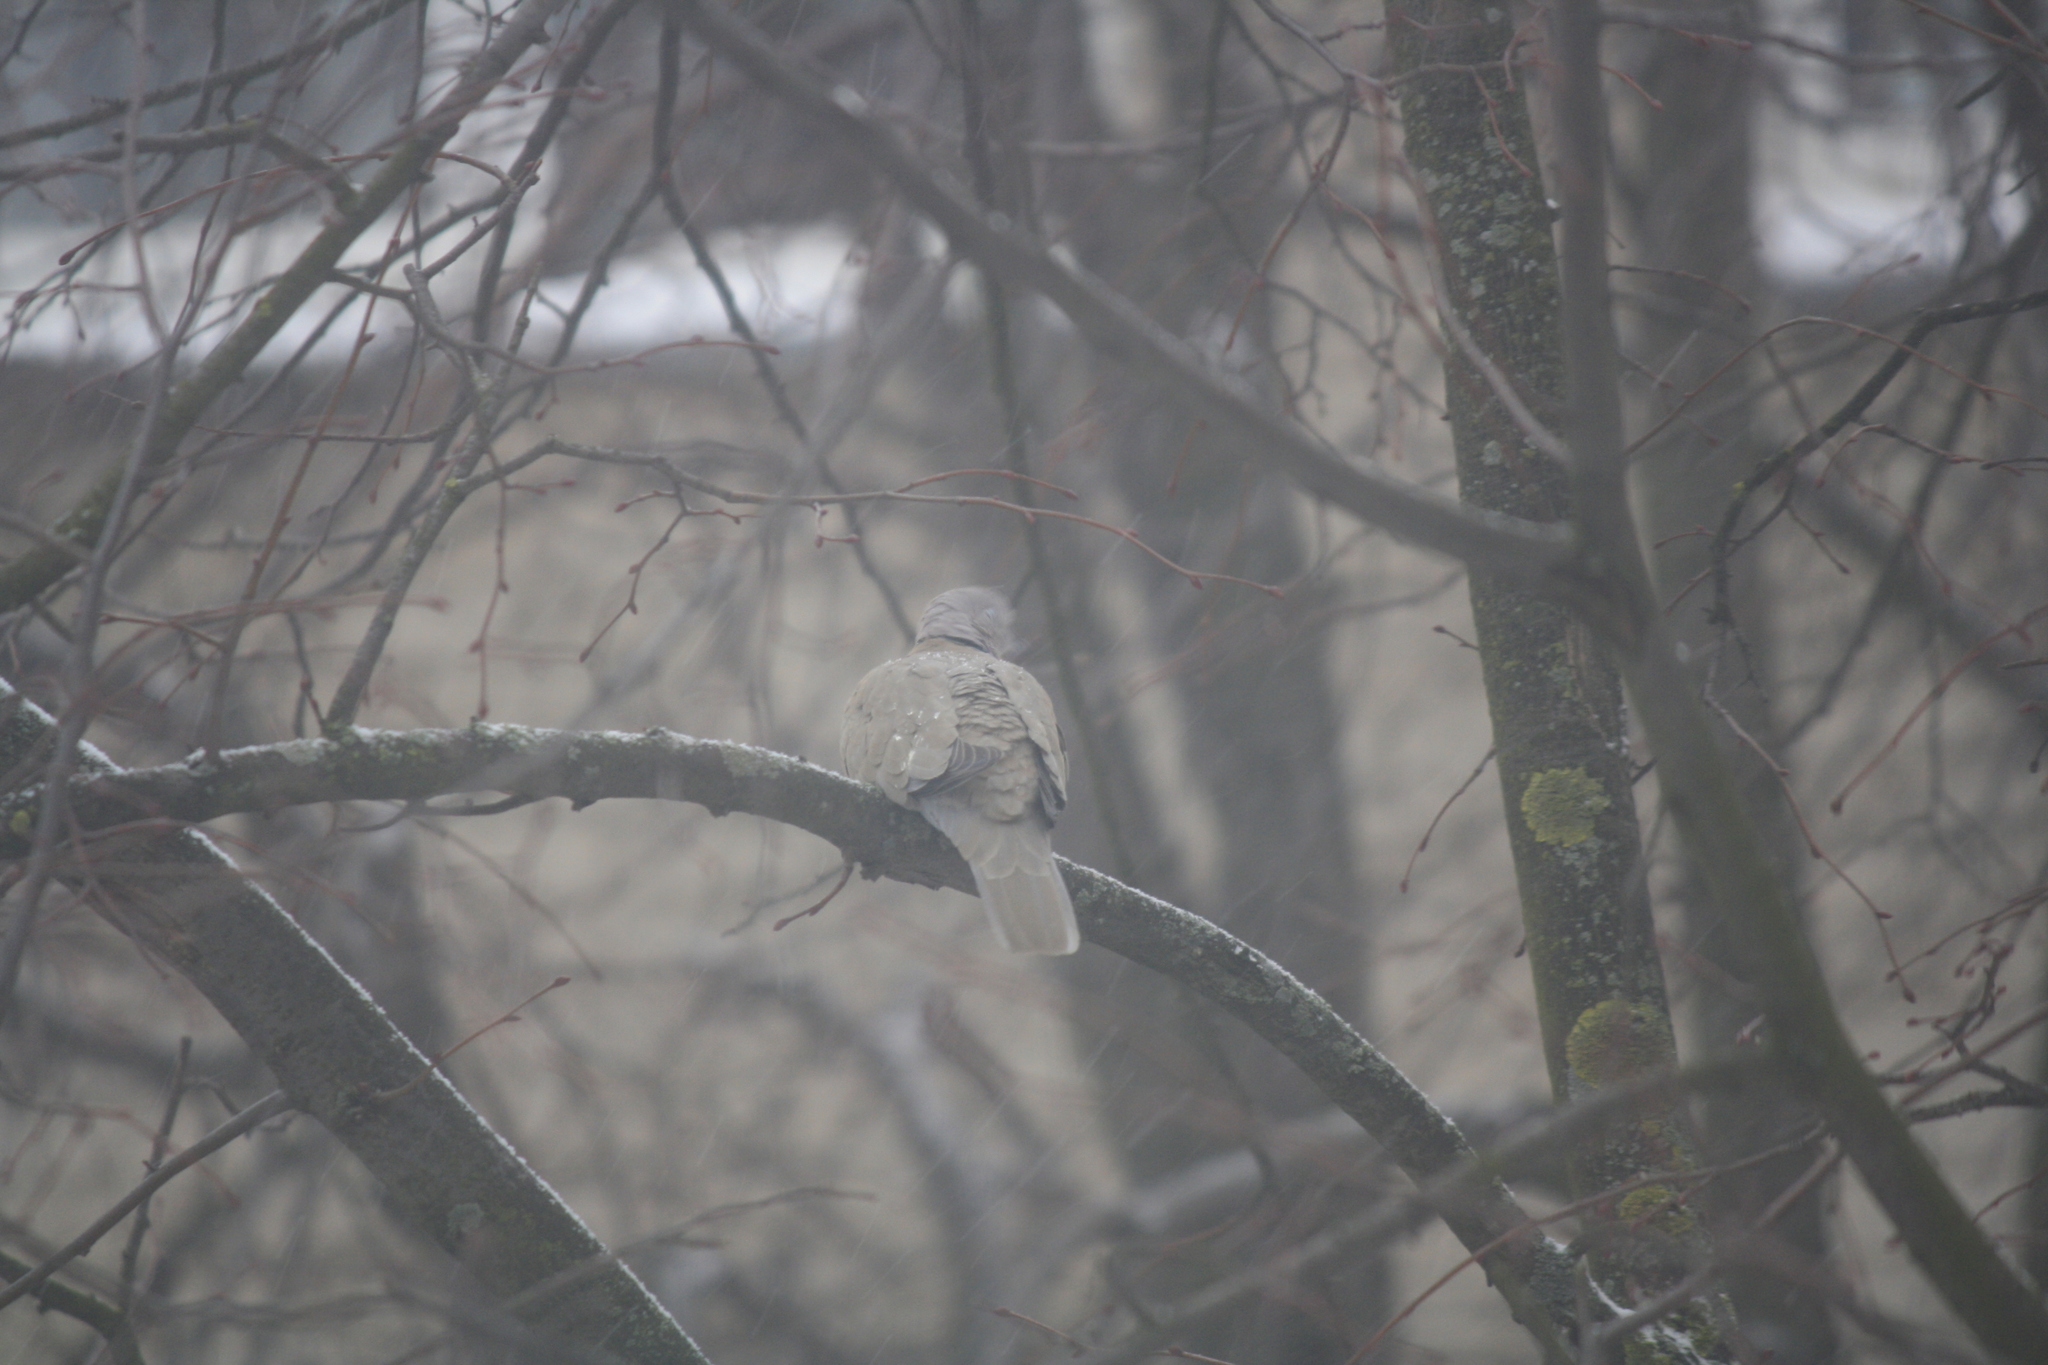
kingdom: Animalia
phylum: Chordata
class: Aves
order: Columbiformes
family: Columbidae
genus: Streptopelia
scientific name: Streptopelia decaocto
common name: Eurasian collared dove
